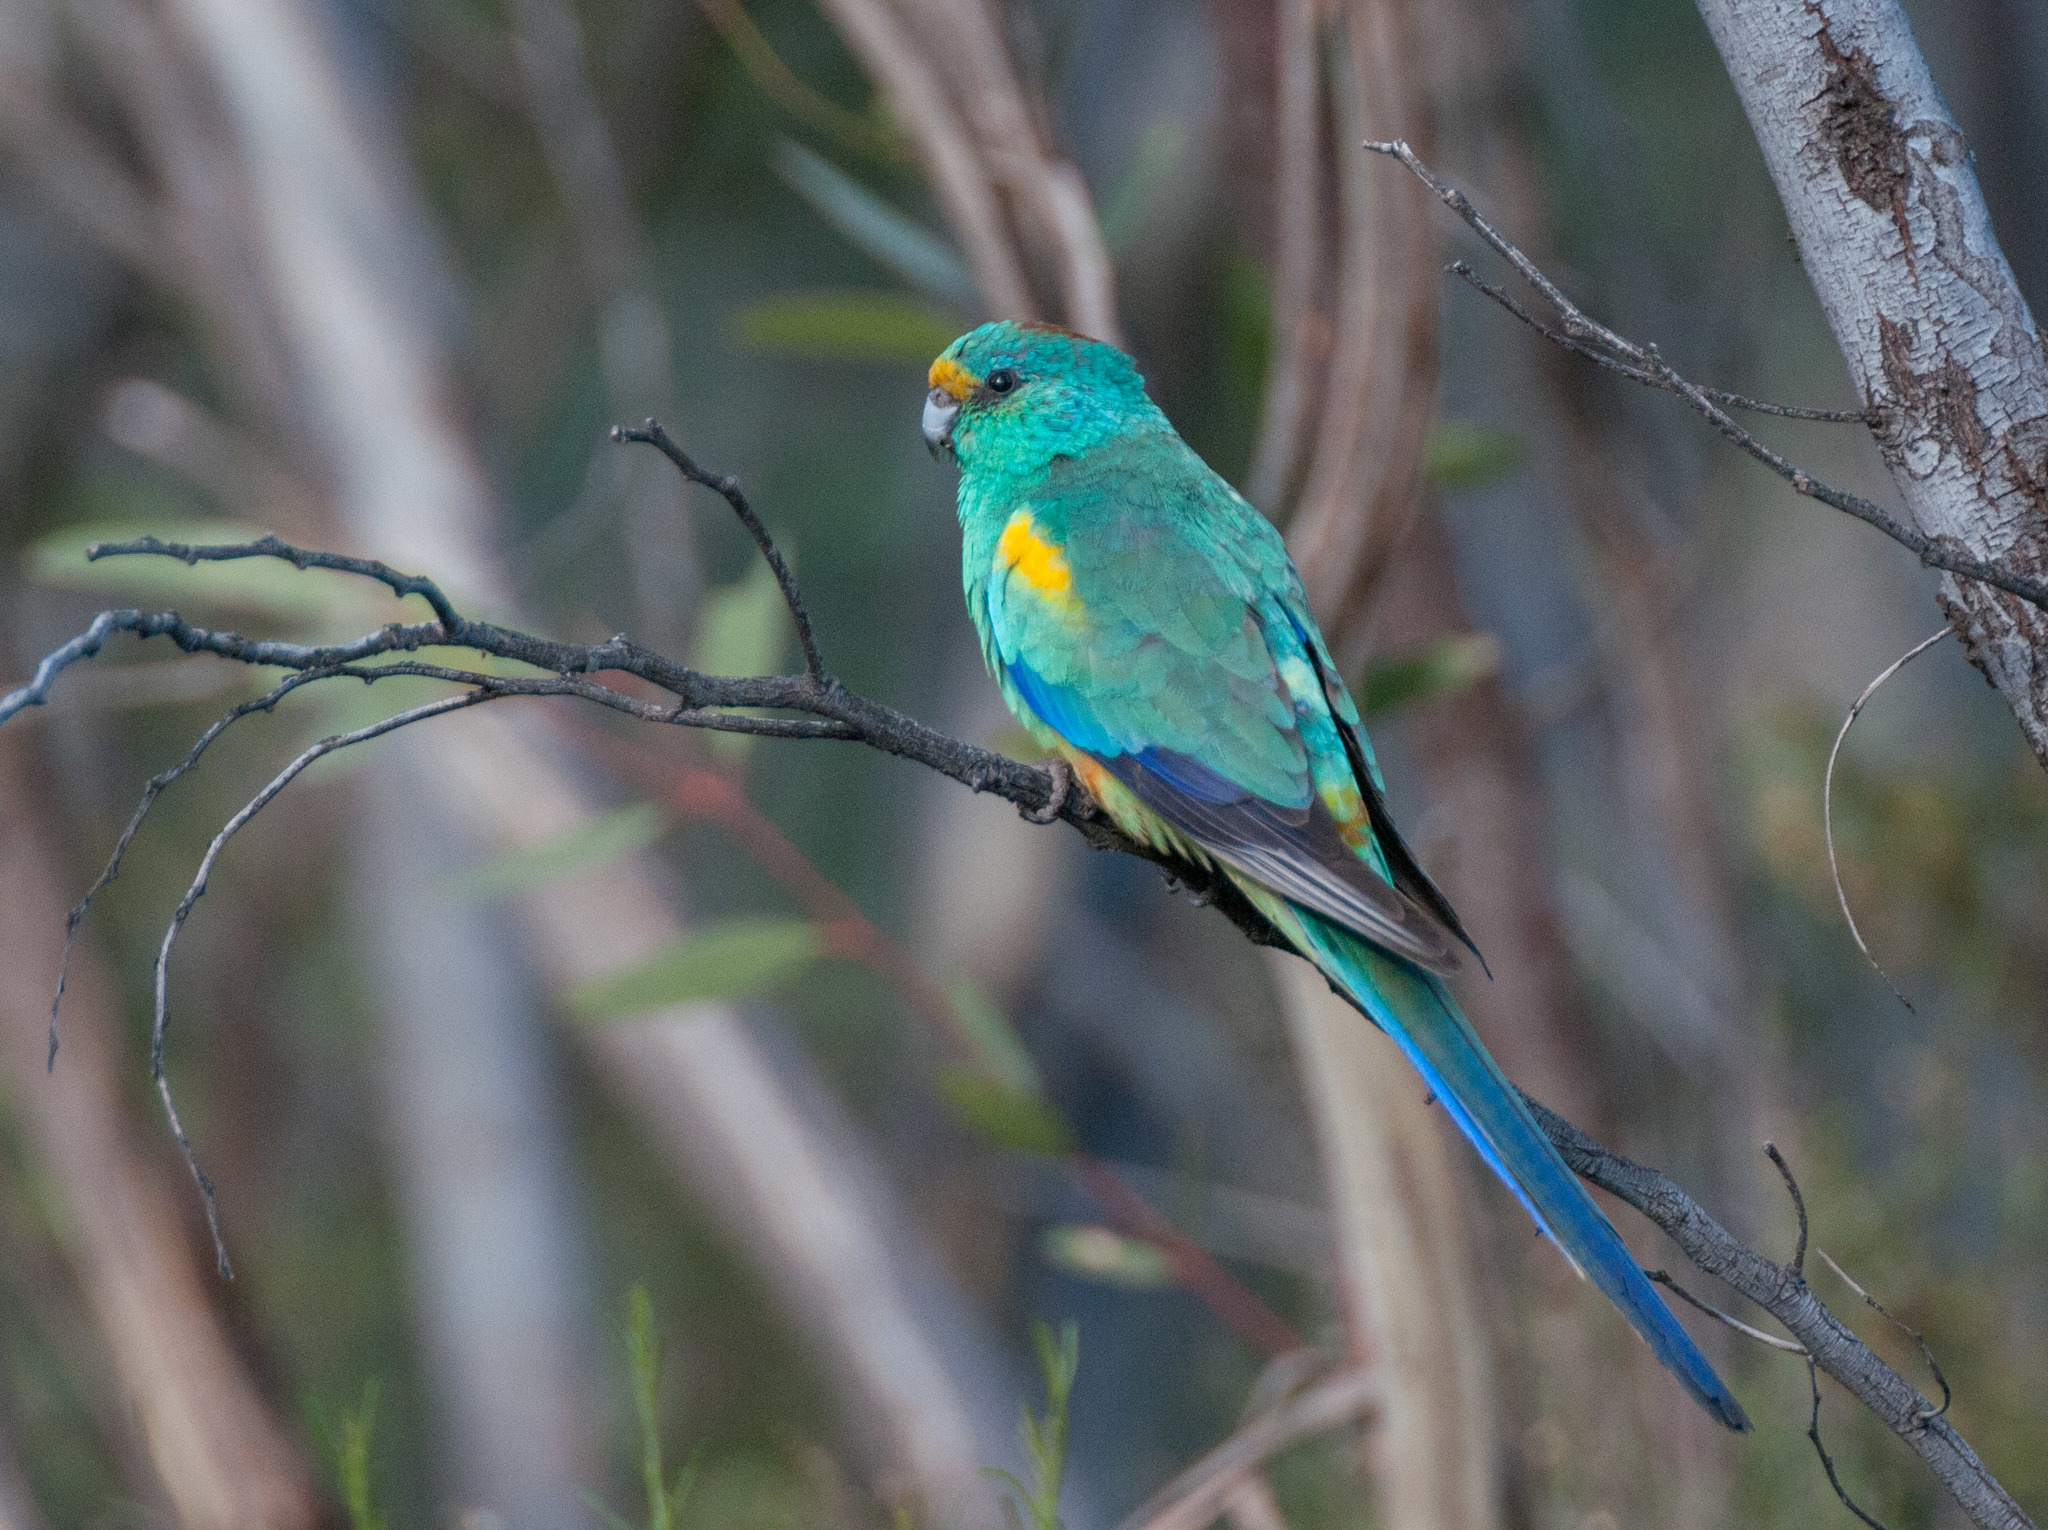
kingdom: Animalia
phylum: Chordata
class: Aves
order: Psittaciformes
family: Psittaculidae
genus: Psephotellus
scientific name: Psephotellus varius
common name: Mulga parrot
